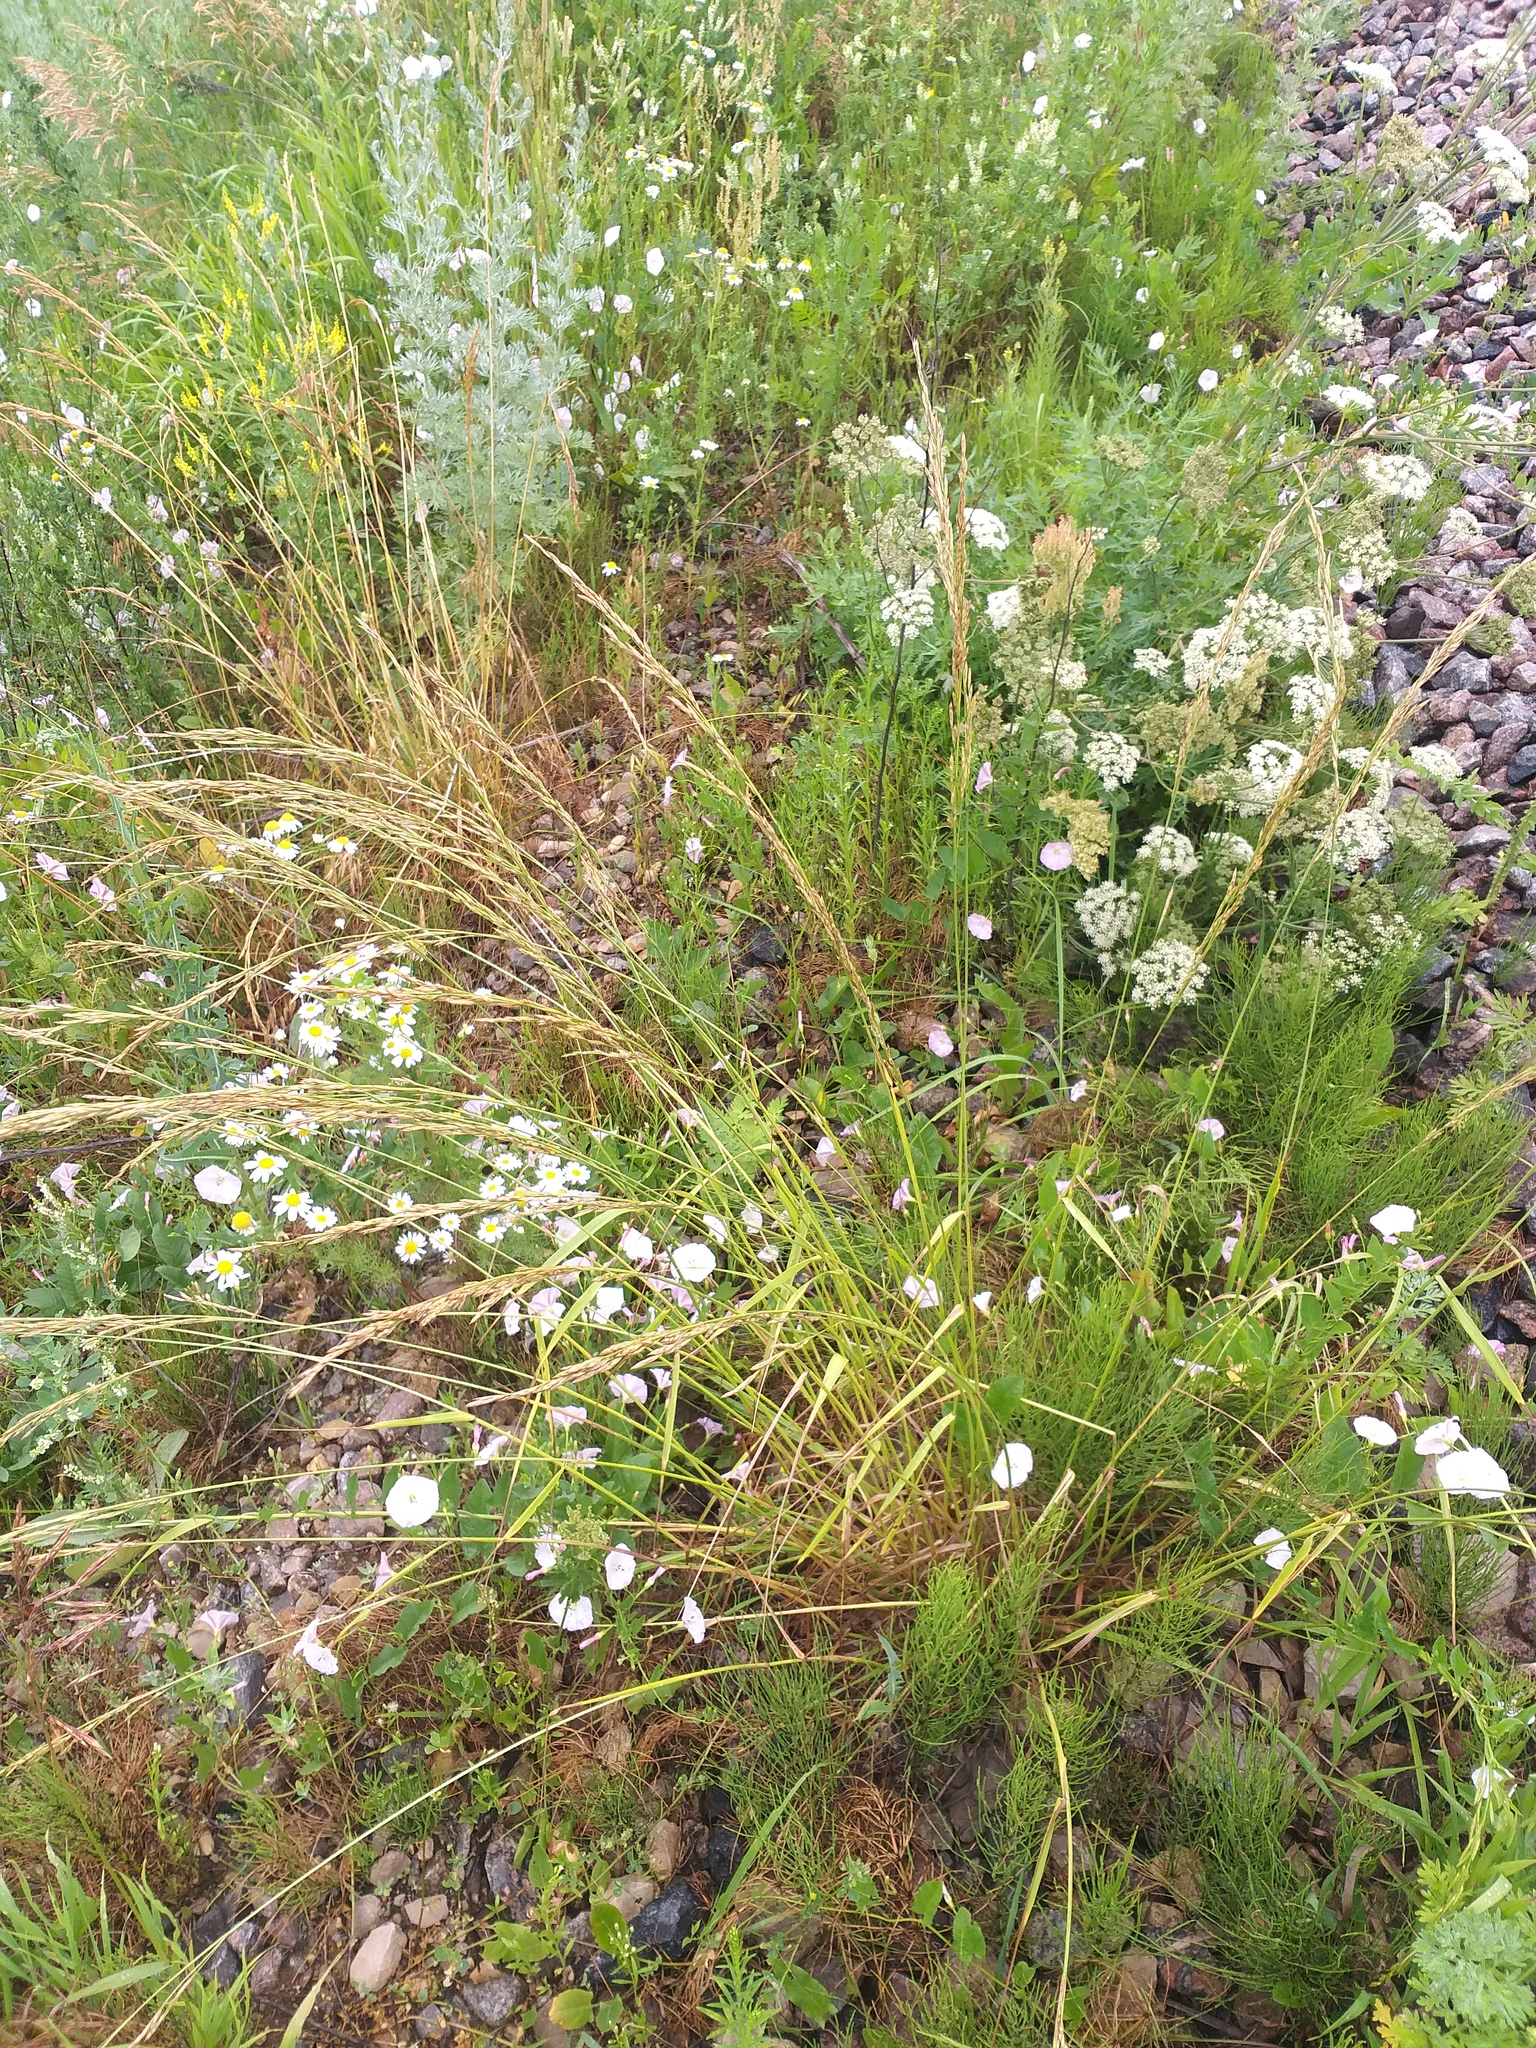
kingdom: Plantae
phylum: Tracheophyta
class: Liliopsida
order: Poales
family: Poaceae
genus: Lolium
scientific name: Lolium pratense
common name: Dover grass
